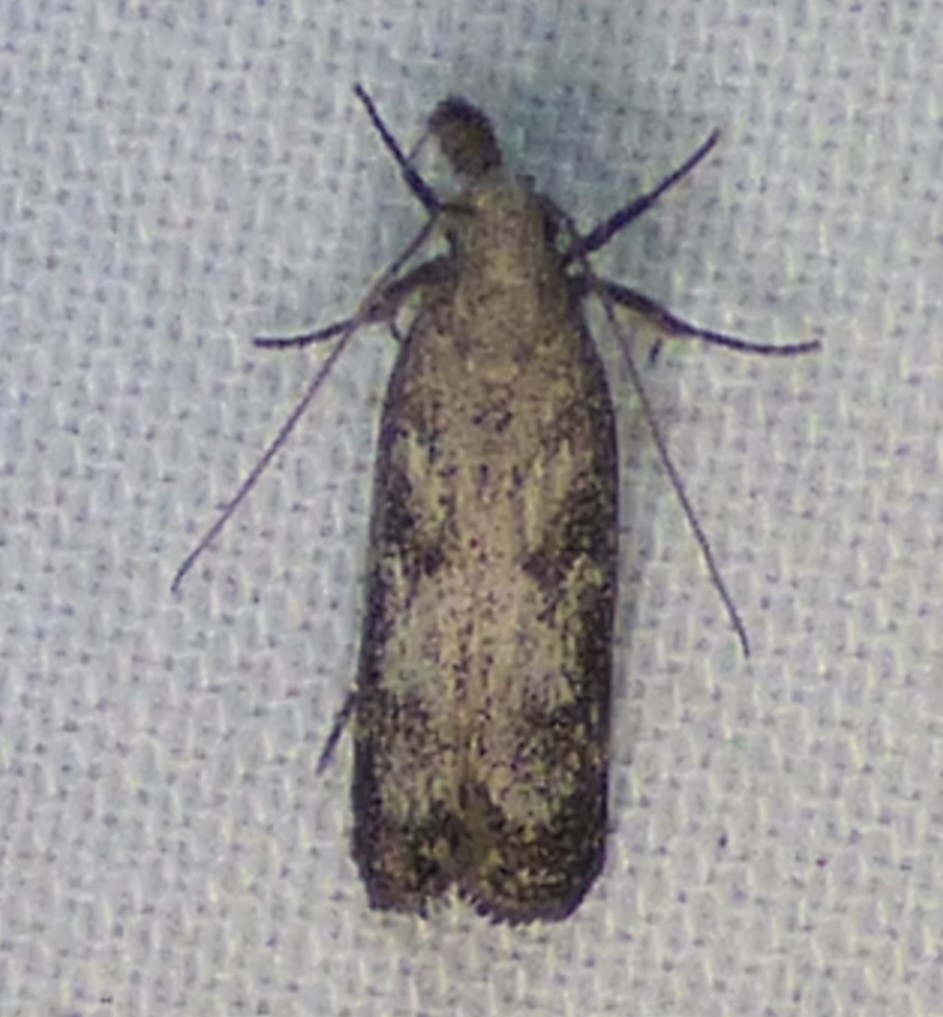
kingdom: Animalia
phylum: Arthropoda
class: Insecta
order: Lepidoptera
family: Gelechiidae
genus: Dichomeris
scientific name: Dichomeris inversella
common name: Inverse dichomeris moth
